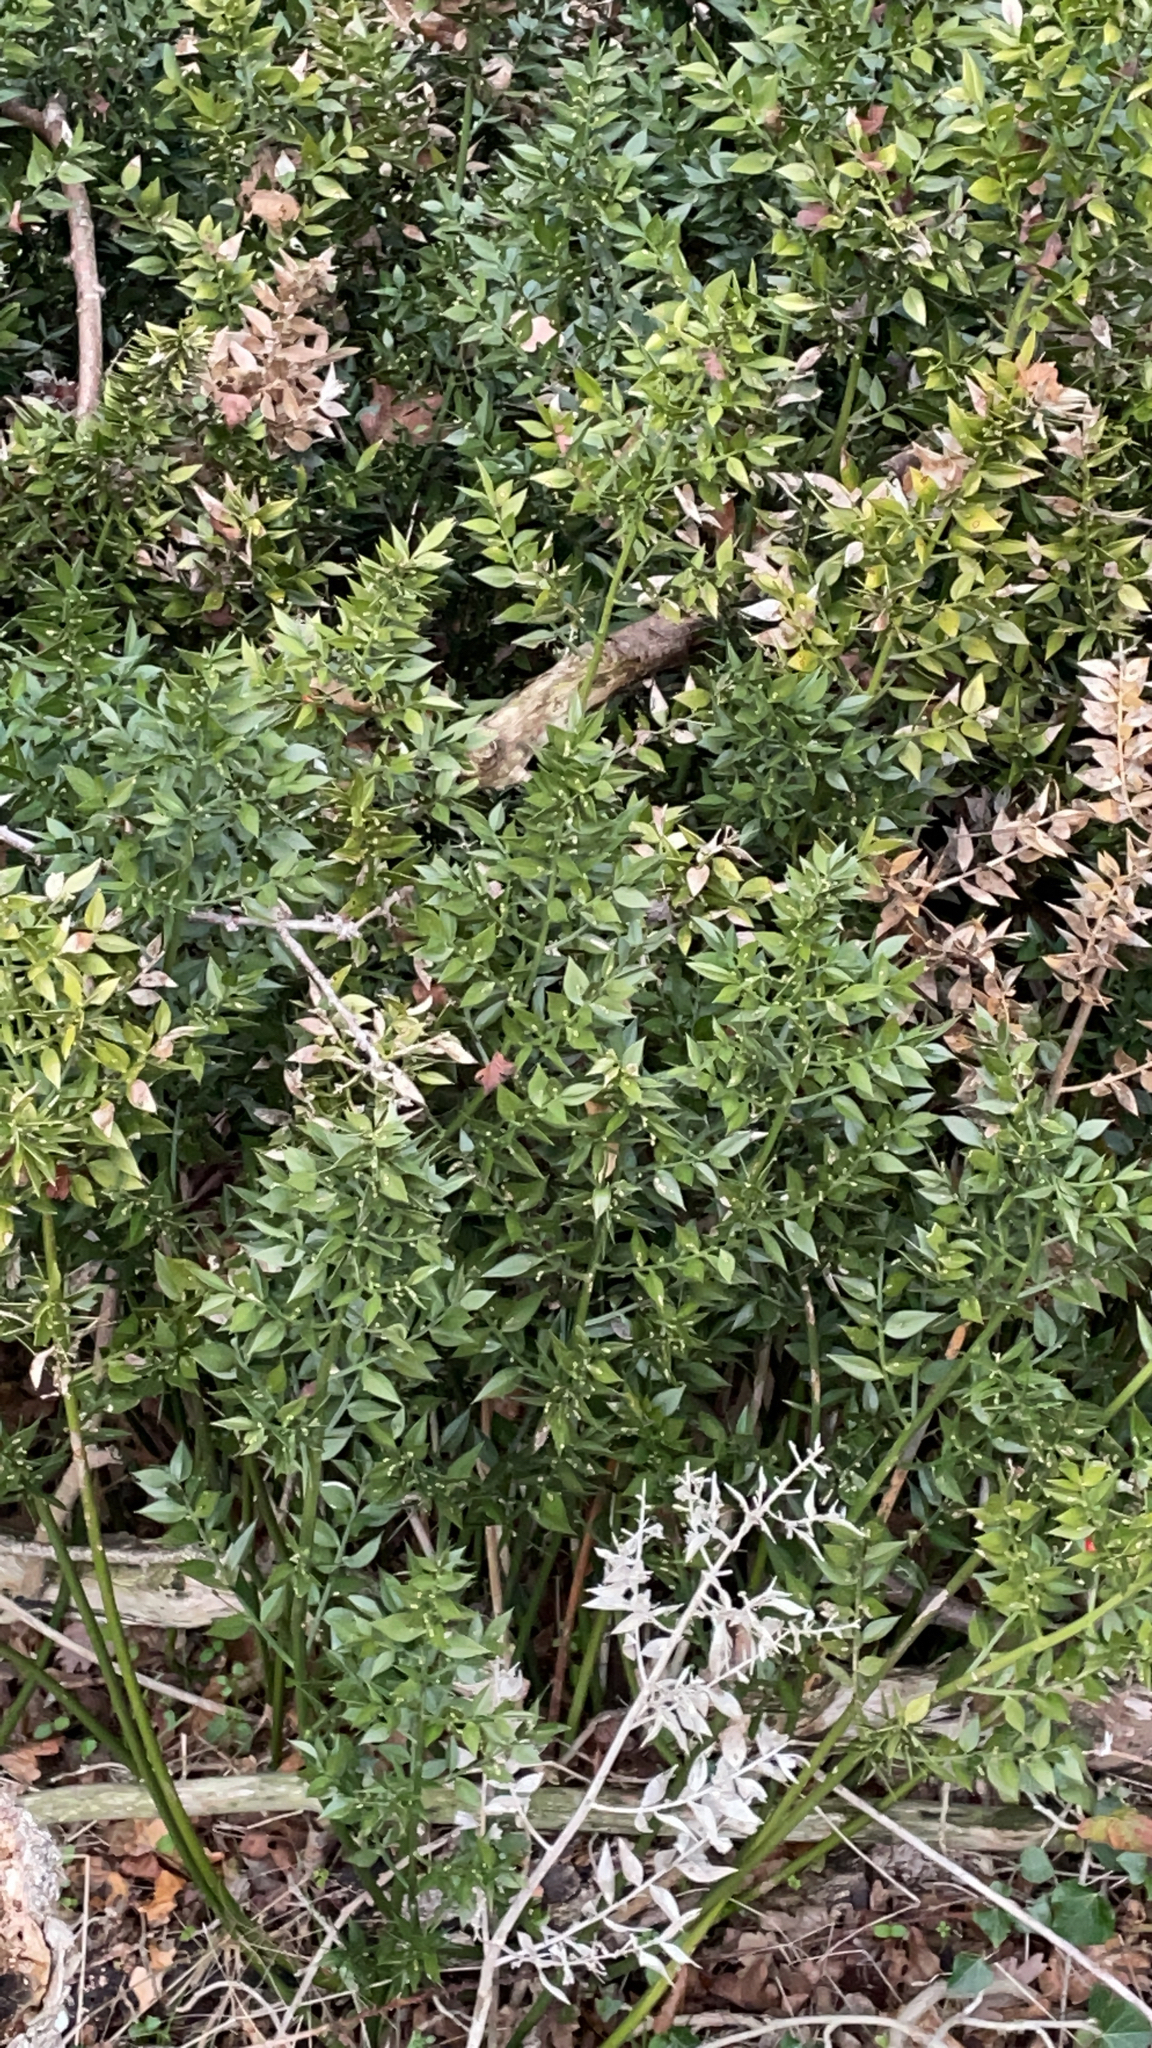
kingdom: Plantae
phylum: Tracheophyta
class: Liliopsida
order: Asparagales
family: Asparagaceae
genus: Ruscus
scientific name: Ruscus aculeatus
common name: Butcher's-broom
